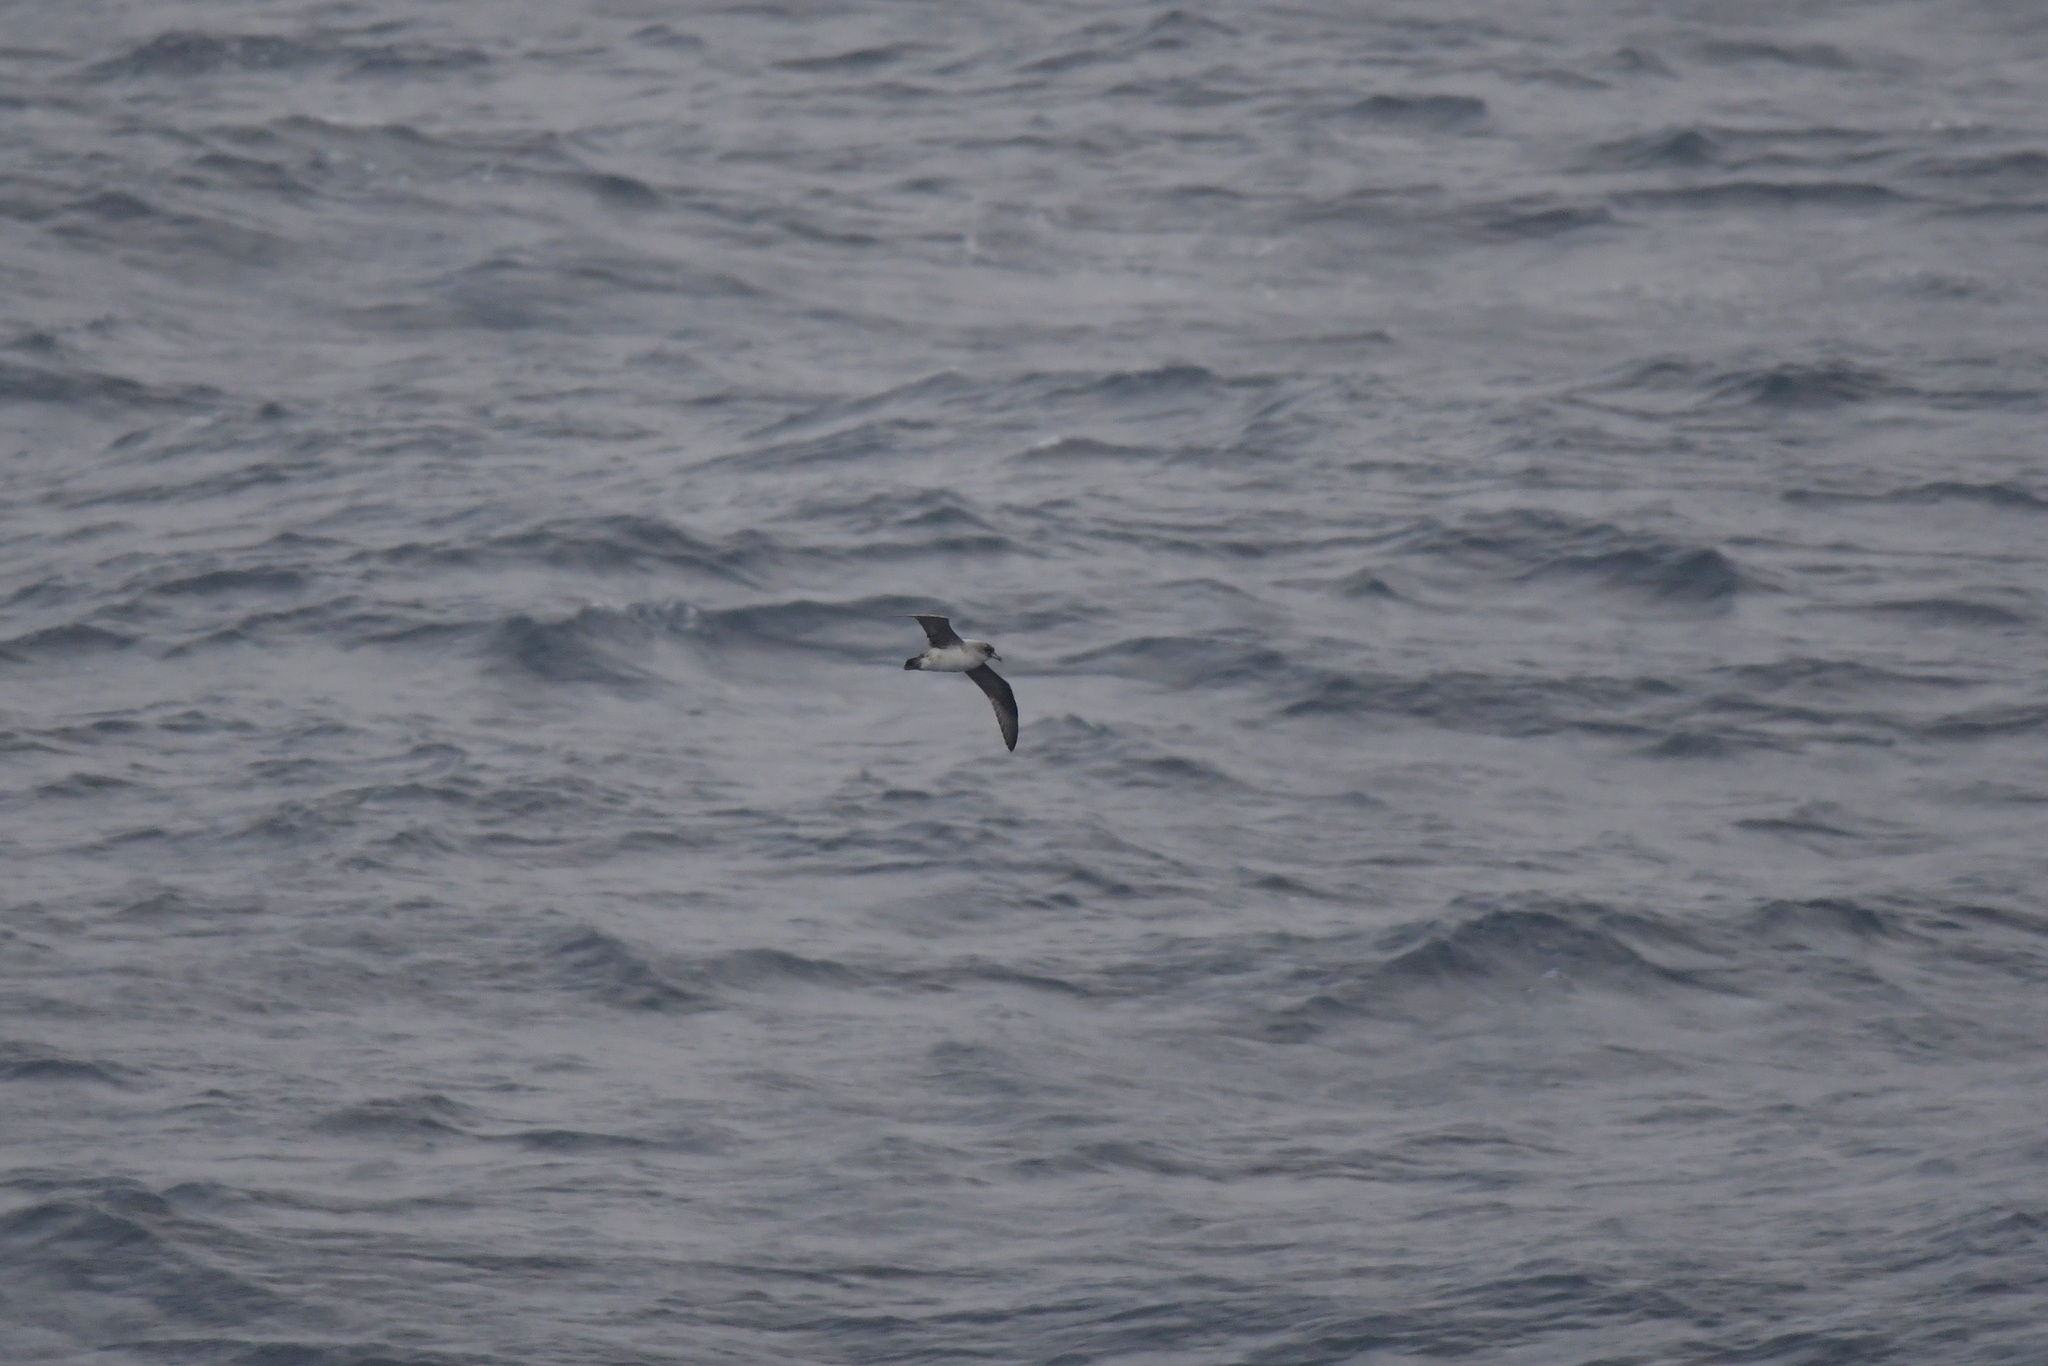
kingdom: Animalia
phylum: Chordata
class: Aves
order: Procellariiformes
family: Procellariidae
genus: Procellaria
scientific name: Procellaria cinerea
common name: Grey petrel
